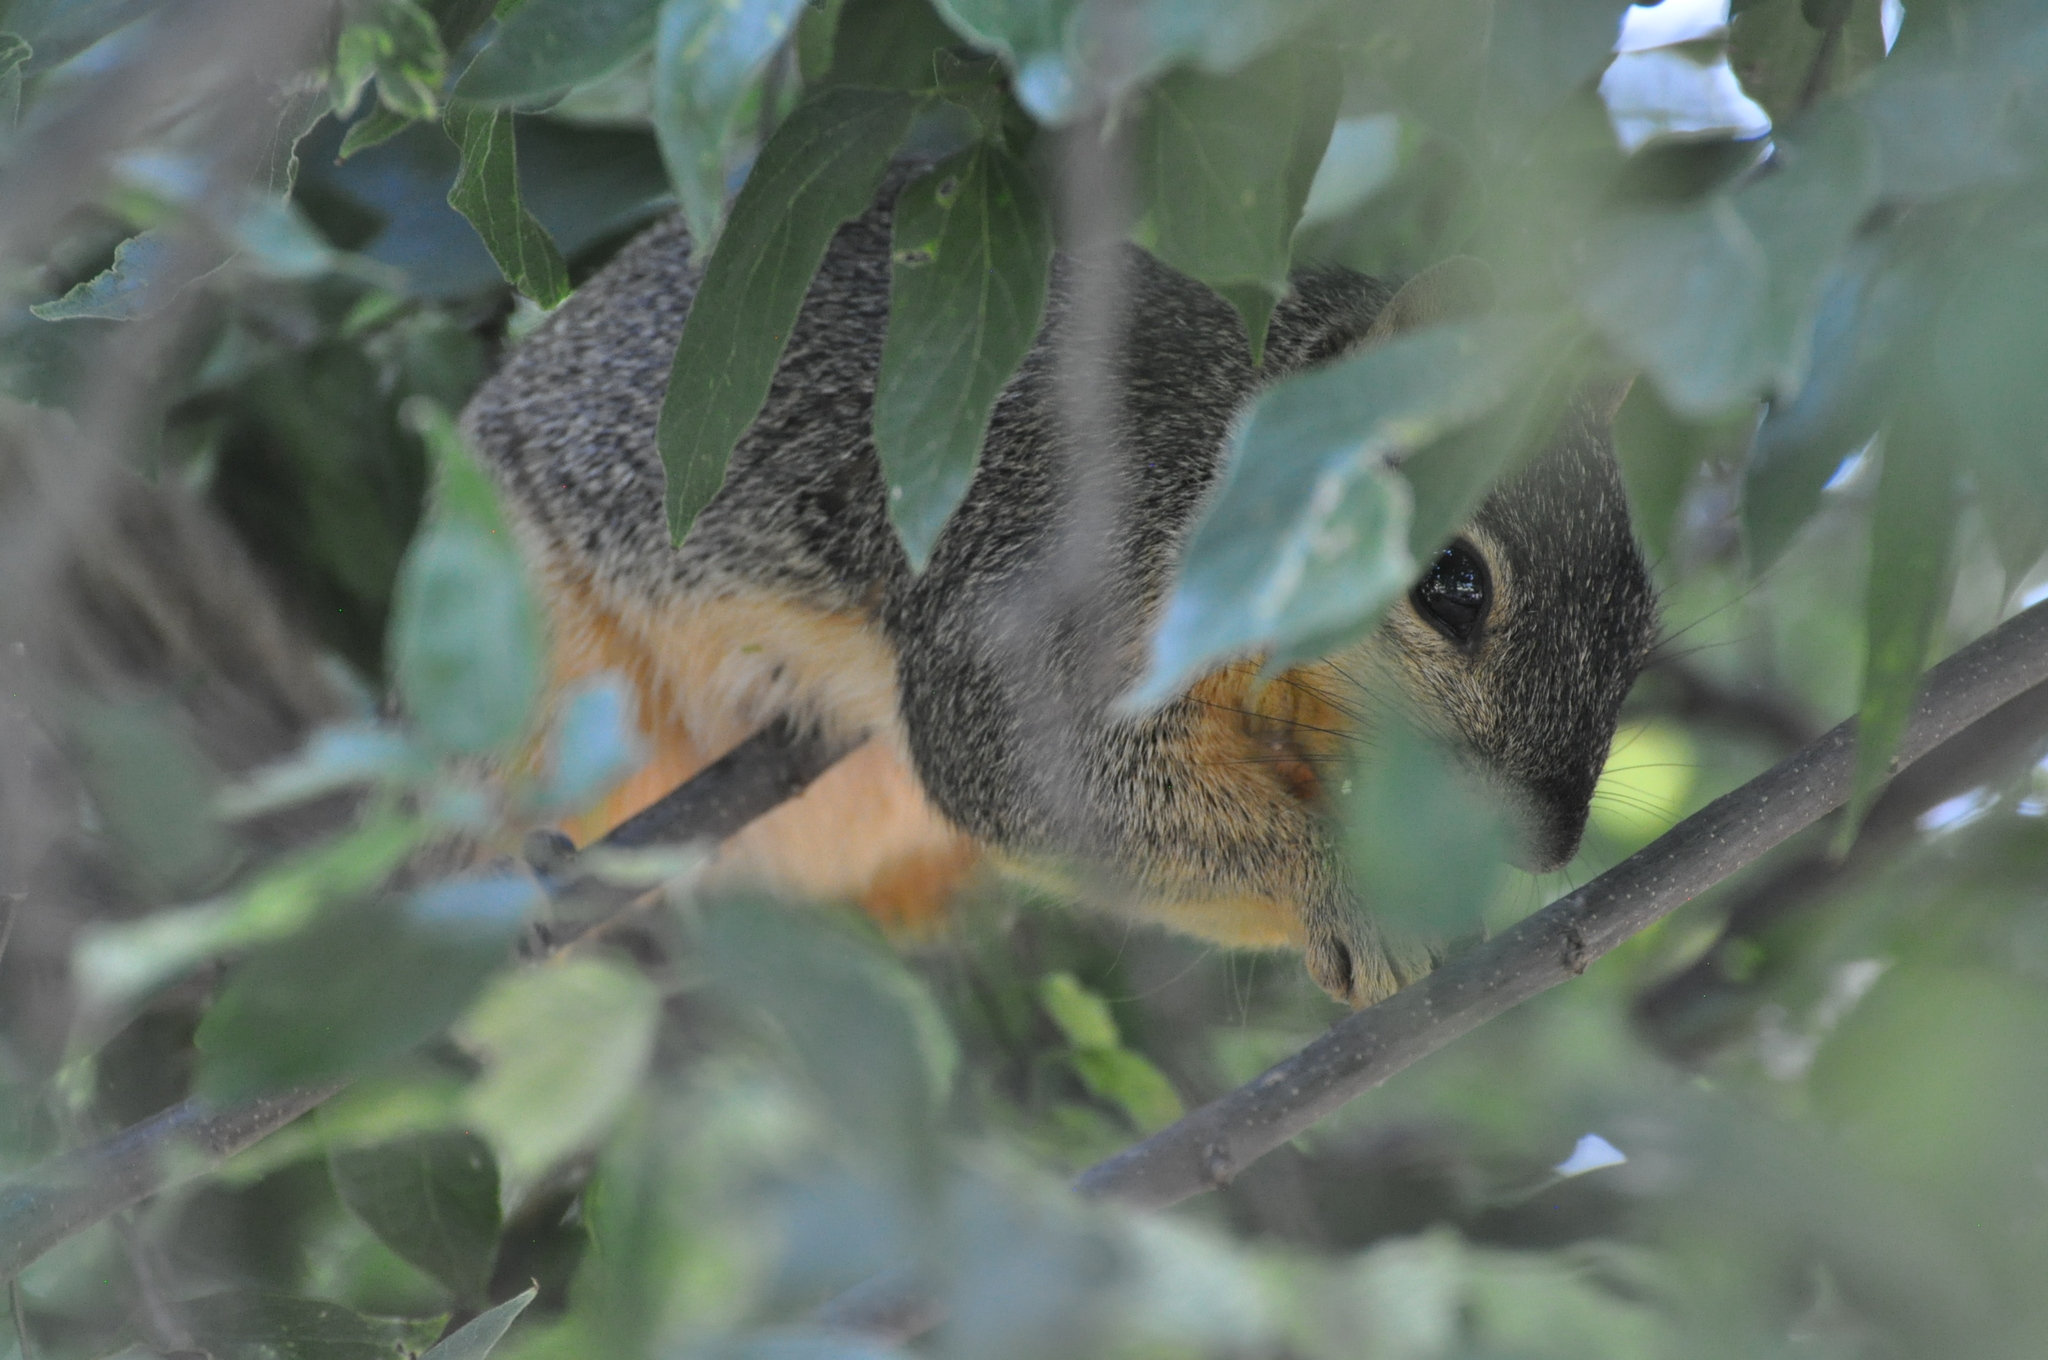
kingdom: Animalia
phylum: Chordata
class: Mammalia
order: Rodentia
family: Sciuridae
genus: Sciurus
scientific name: Sciurus niger
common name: Fox squirrel
